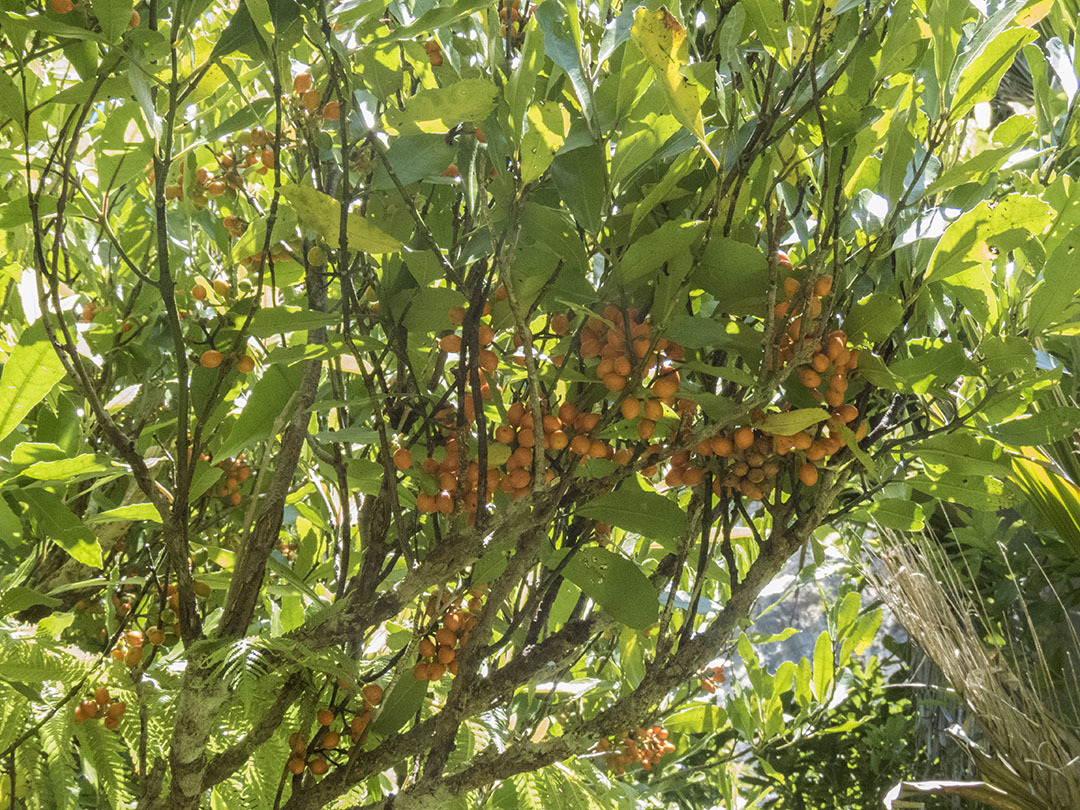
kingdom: Plantae
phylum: Tracheophyta
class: Magnoliopsida
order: Laurales
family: Monimiaceae
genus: Hedycarya
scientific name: Hedycarya arborea
